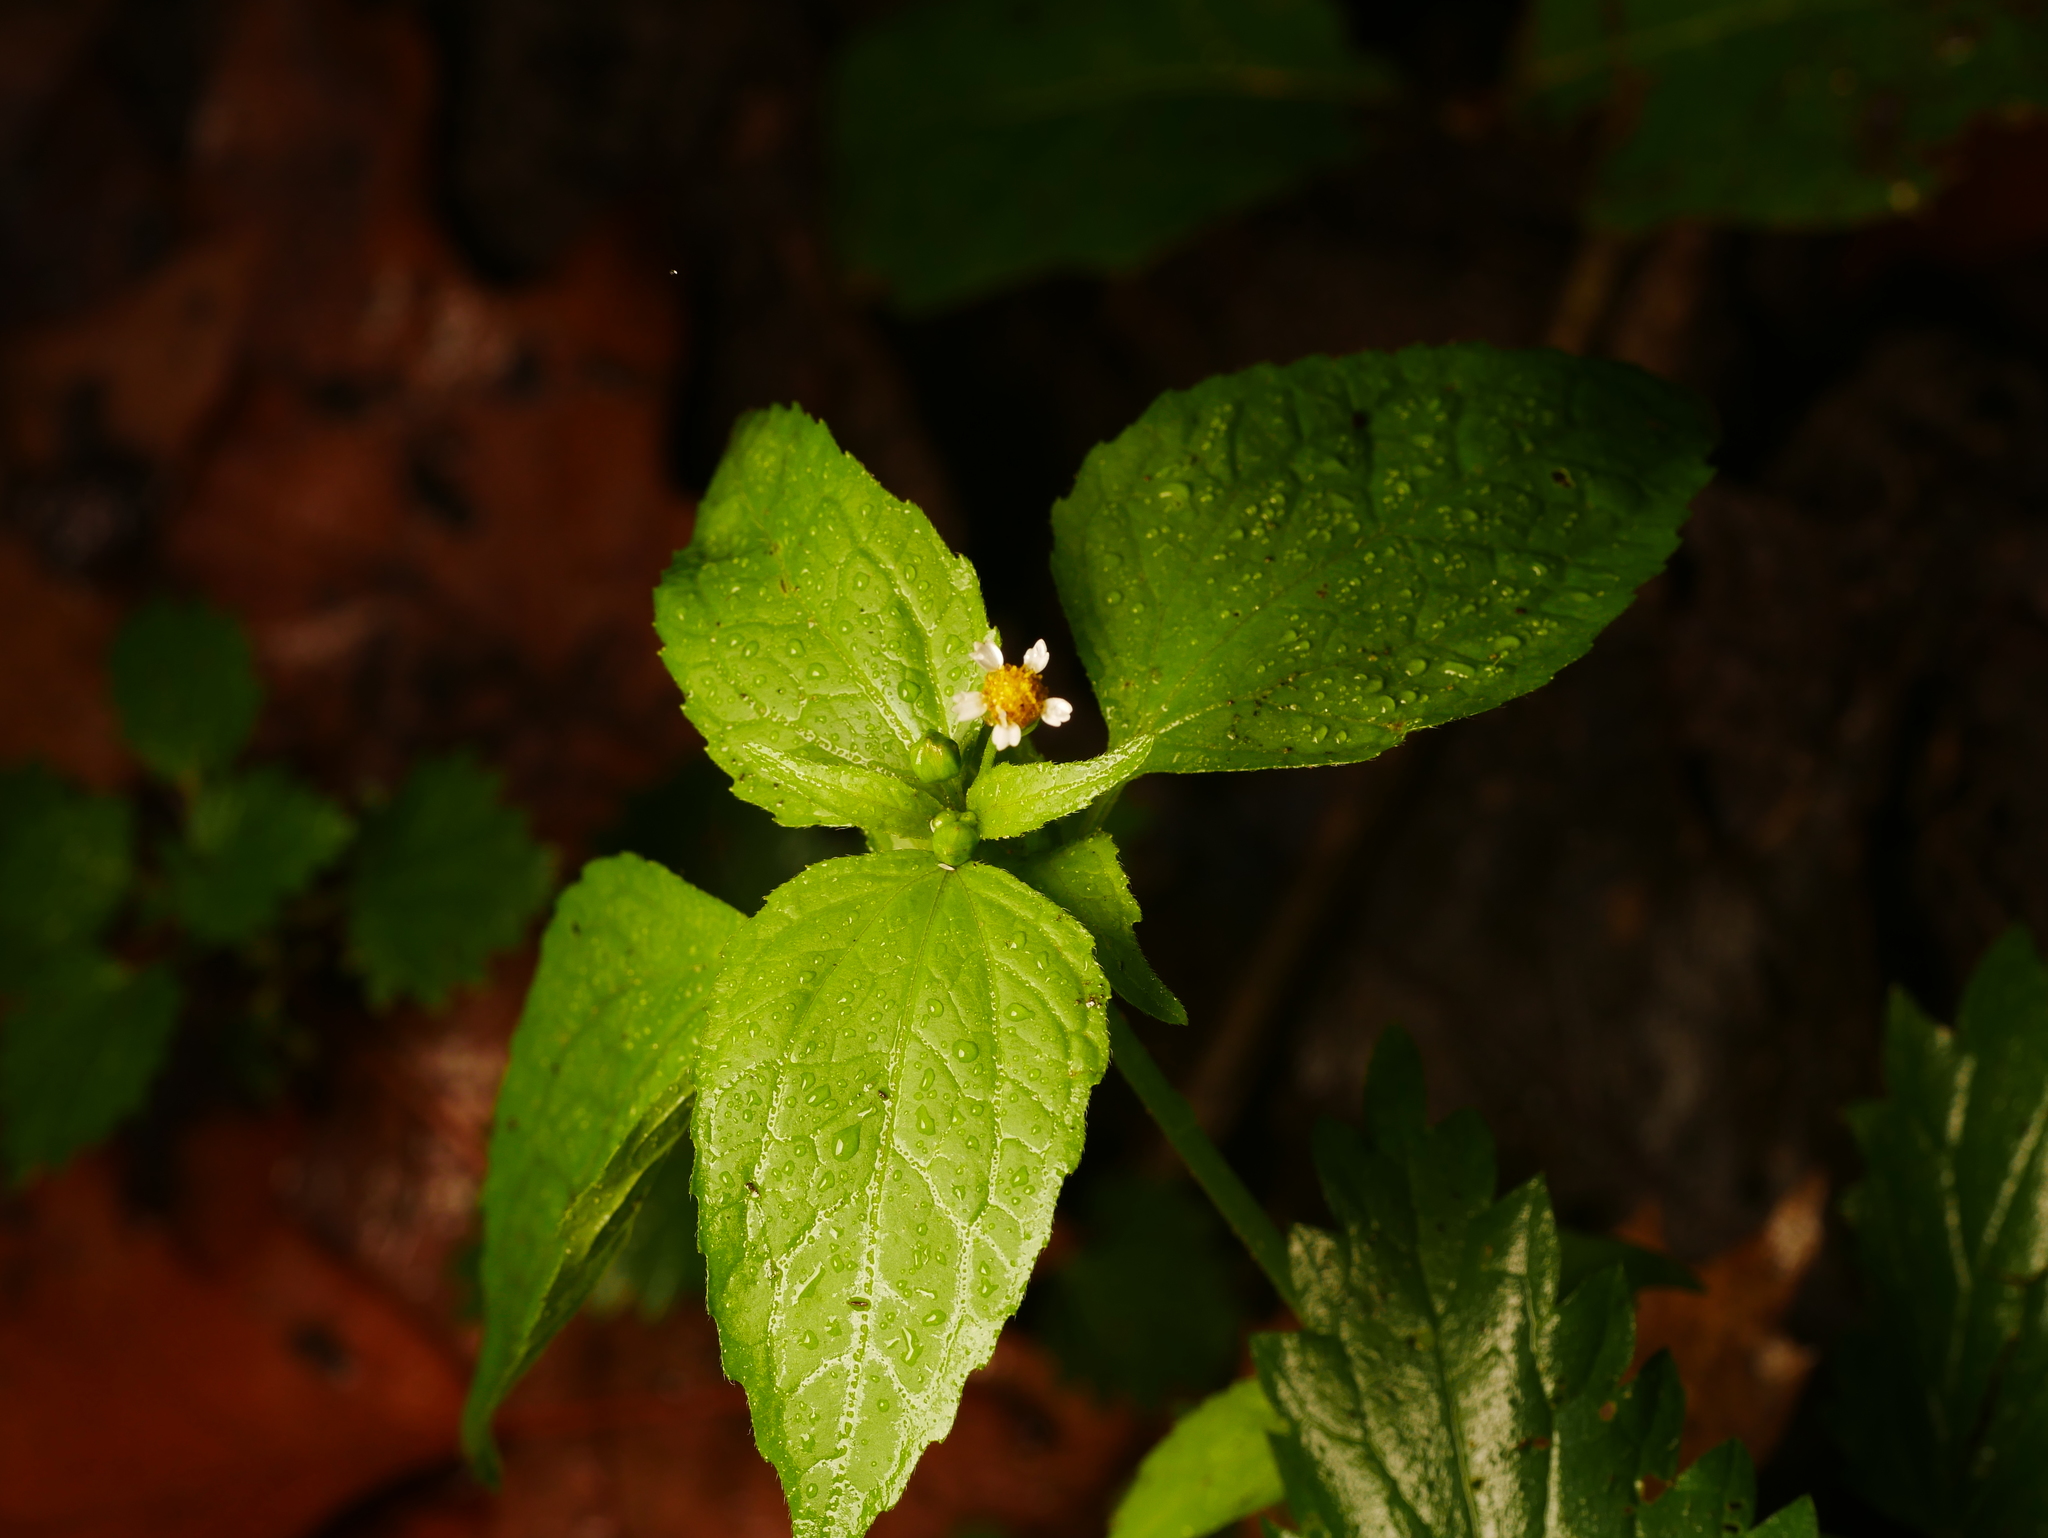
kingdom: Plantae
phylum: Tracheophyta
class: Magnoliopsida
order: Asterales
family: Asteraceae
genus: Galinsoga
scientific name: Galinsoga quadriradiata
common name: Shaggy soldier
